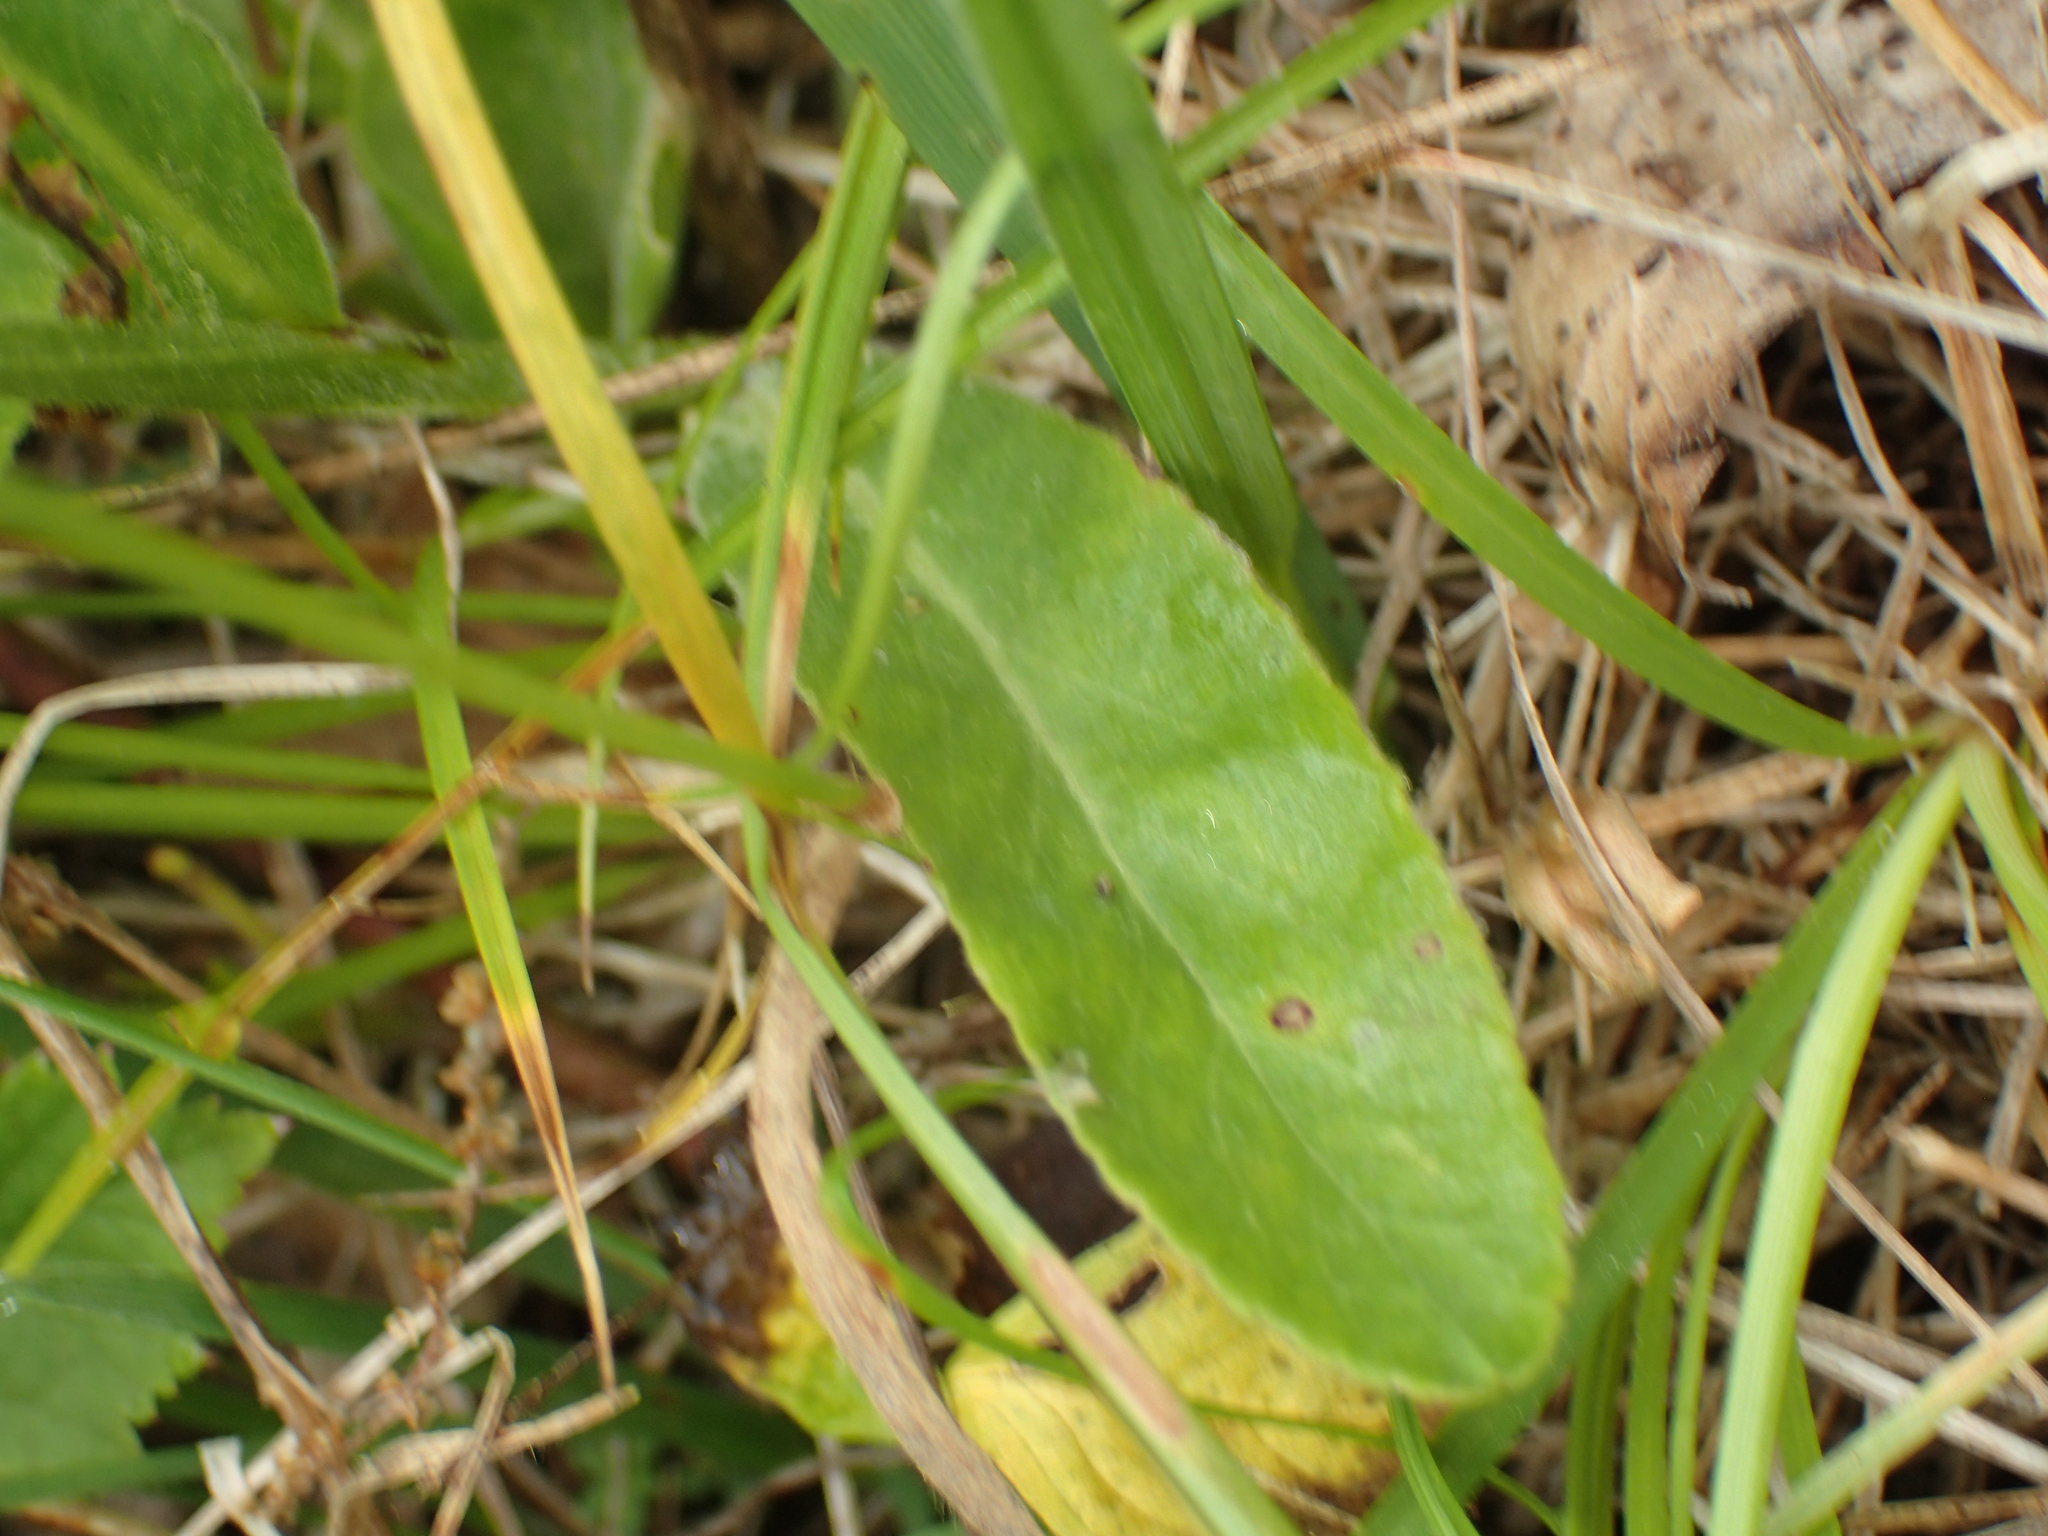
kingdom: Plantae
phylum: Tracheophyta
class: Magnoliopsida
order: Asterales
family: Campanulaceae
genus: Lobelia
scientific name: Lobelia spicata
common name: Pale-spike lobelia
